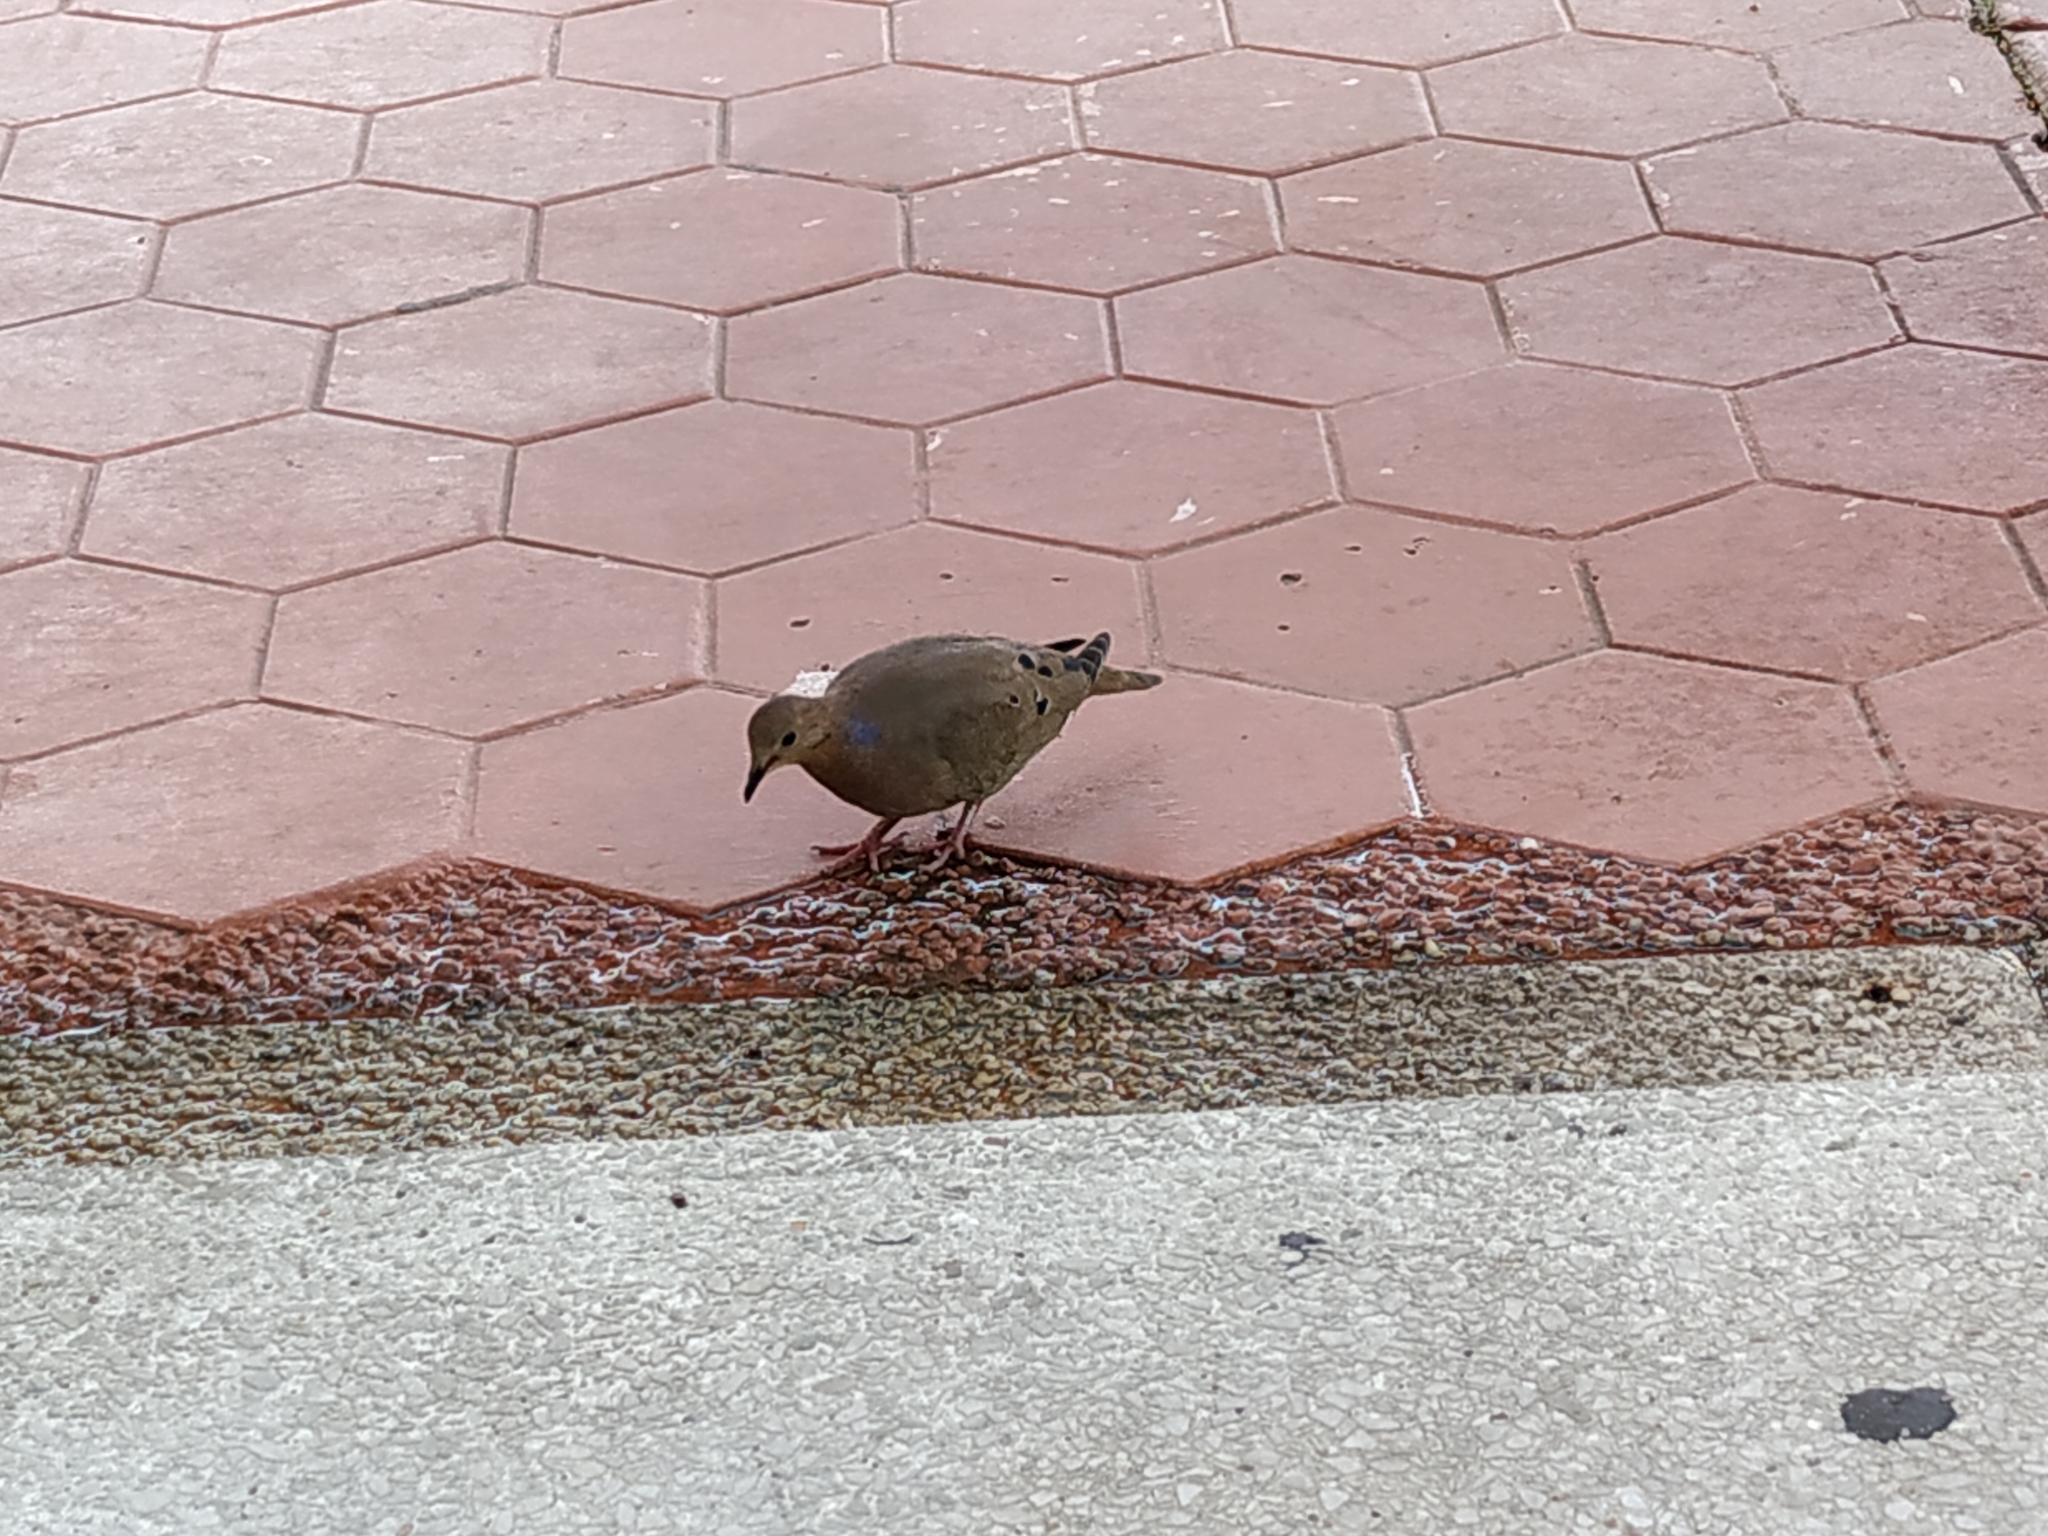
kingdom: Animalia
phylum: Chordata
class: Aves
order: Columbiformes
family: Columbidae
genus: Zenaida
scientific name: Zenaida aurita
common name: Zenaida dove
